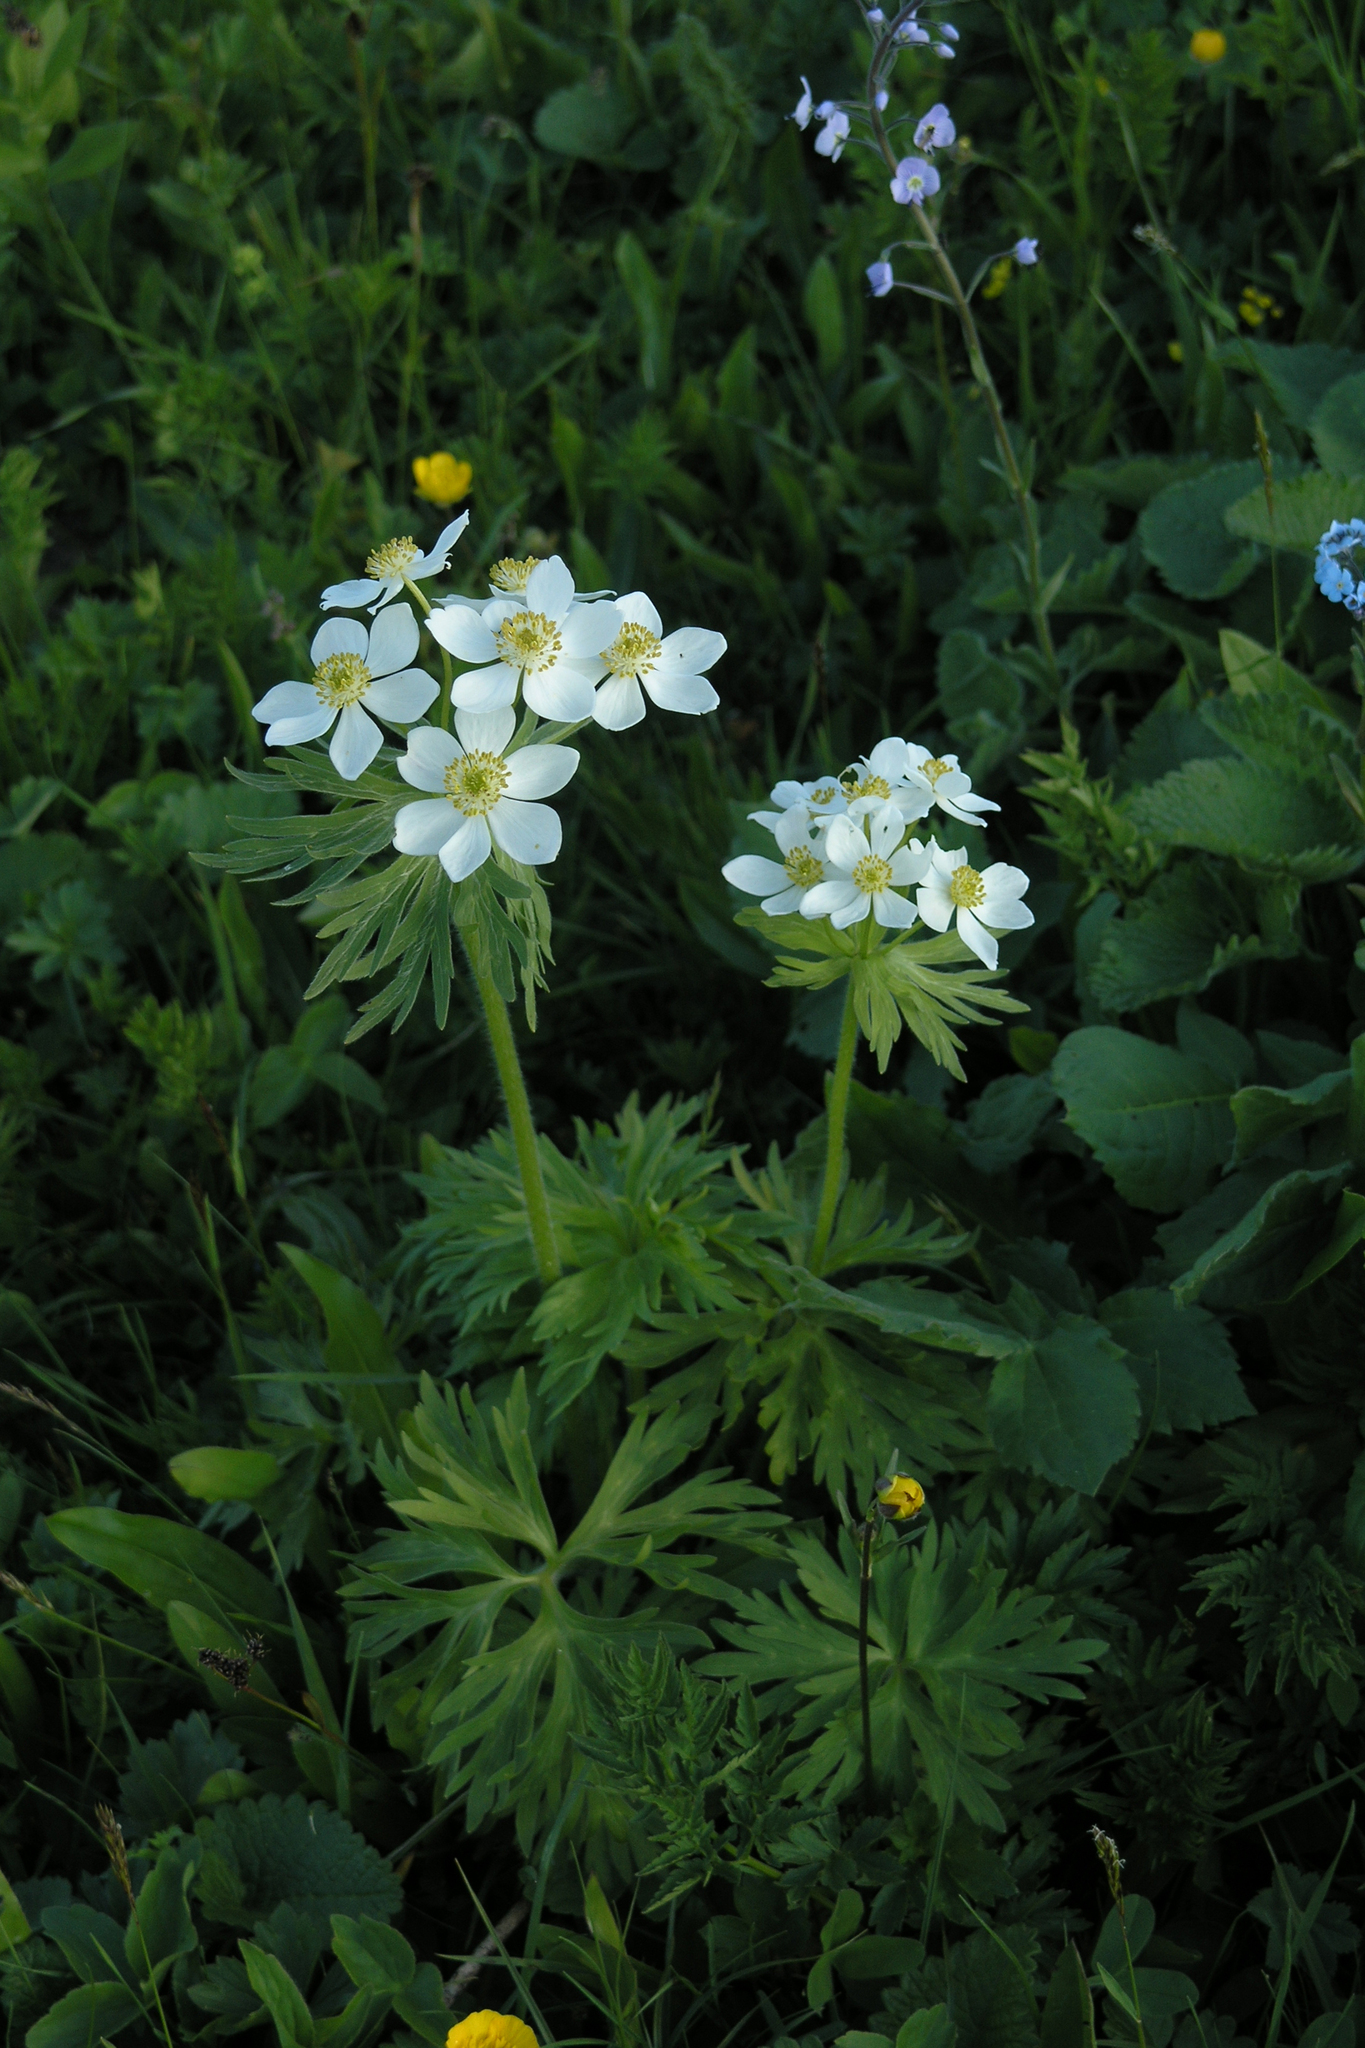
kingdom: Plantae
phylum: Tracheophyta
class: Magnoliopsida
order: Ranunculales
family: Ranunculaceae
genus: Anemonastrum
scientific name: Anemonastrum narcissiflorum
